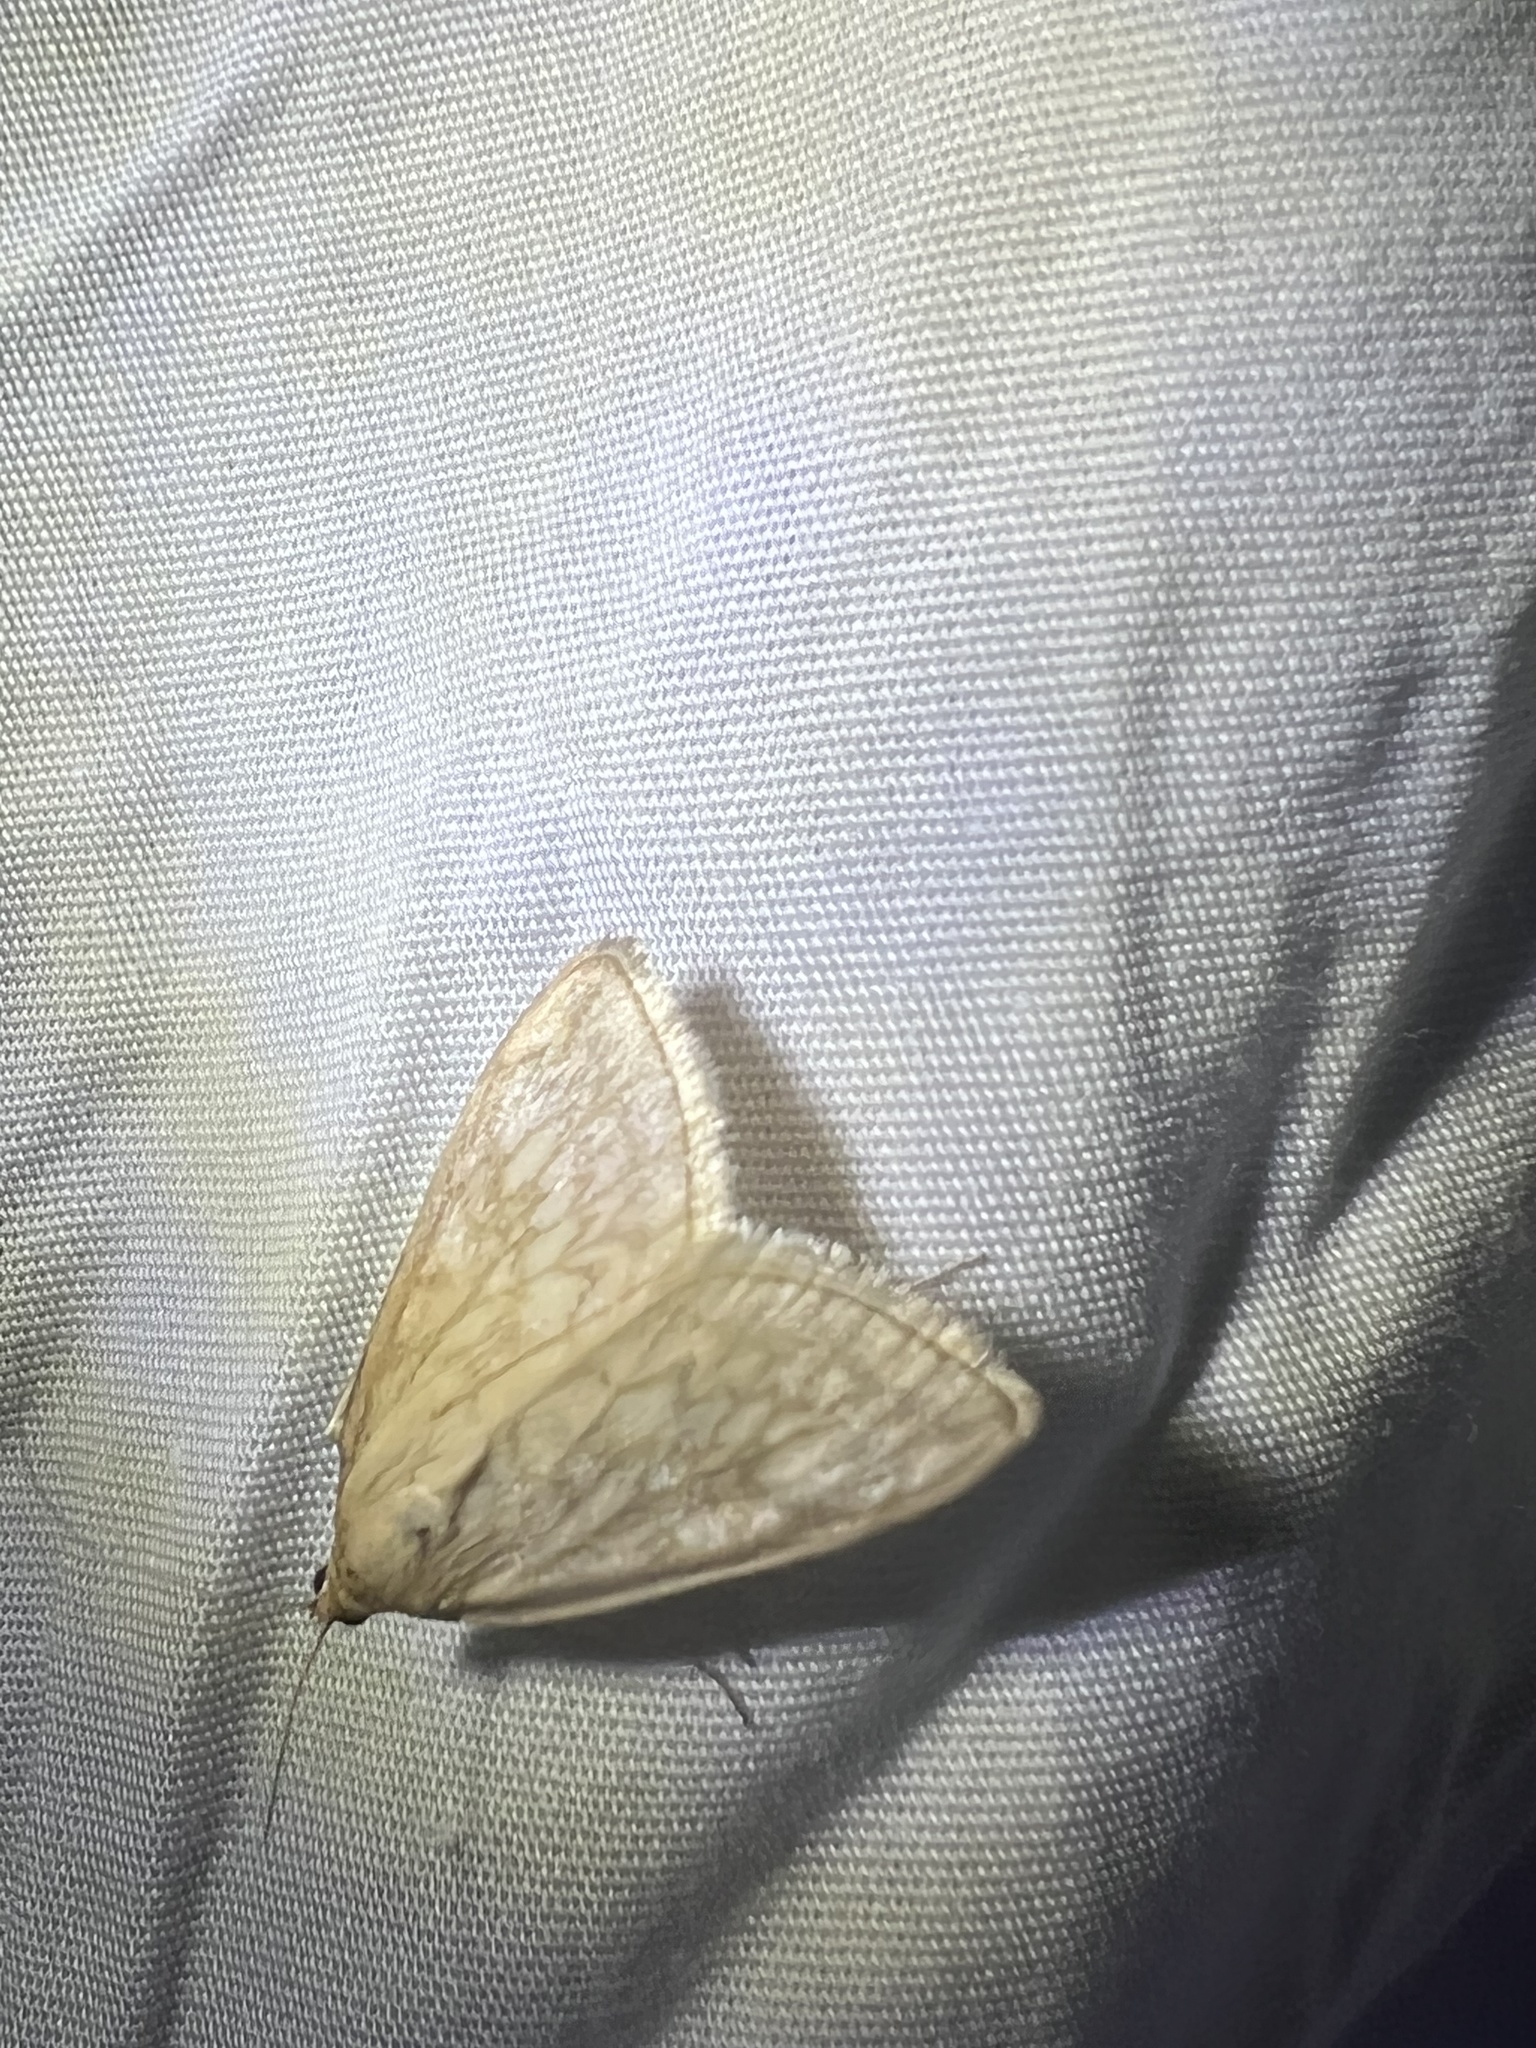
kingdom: Animalia
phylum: Arthropoda
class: Insecta
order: Lepidoptera
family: Crambidae
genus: Sitochroa
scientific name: Sitochroa chortalis
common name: Dimorphic sitochroa moth
